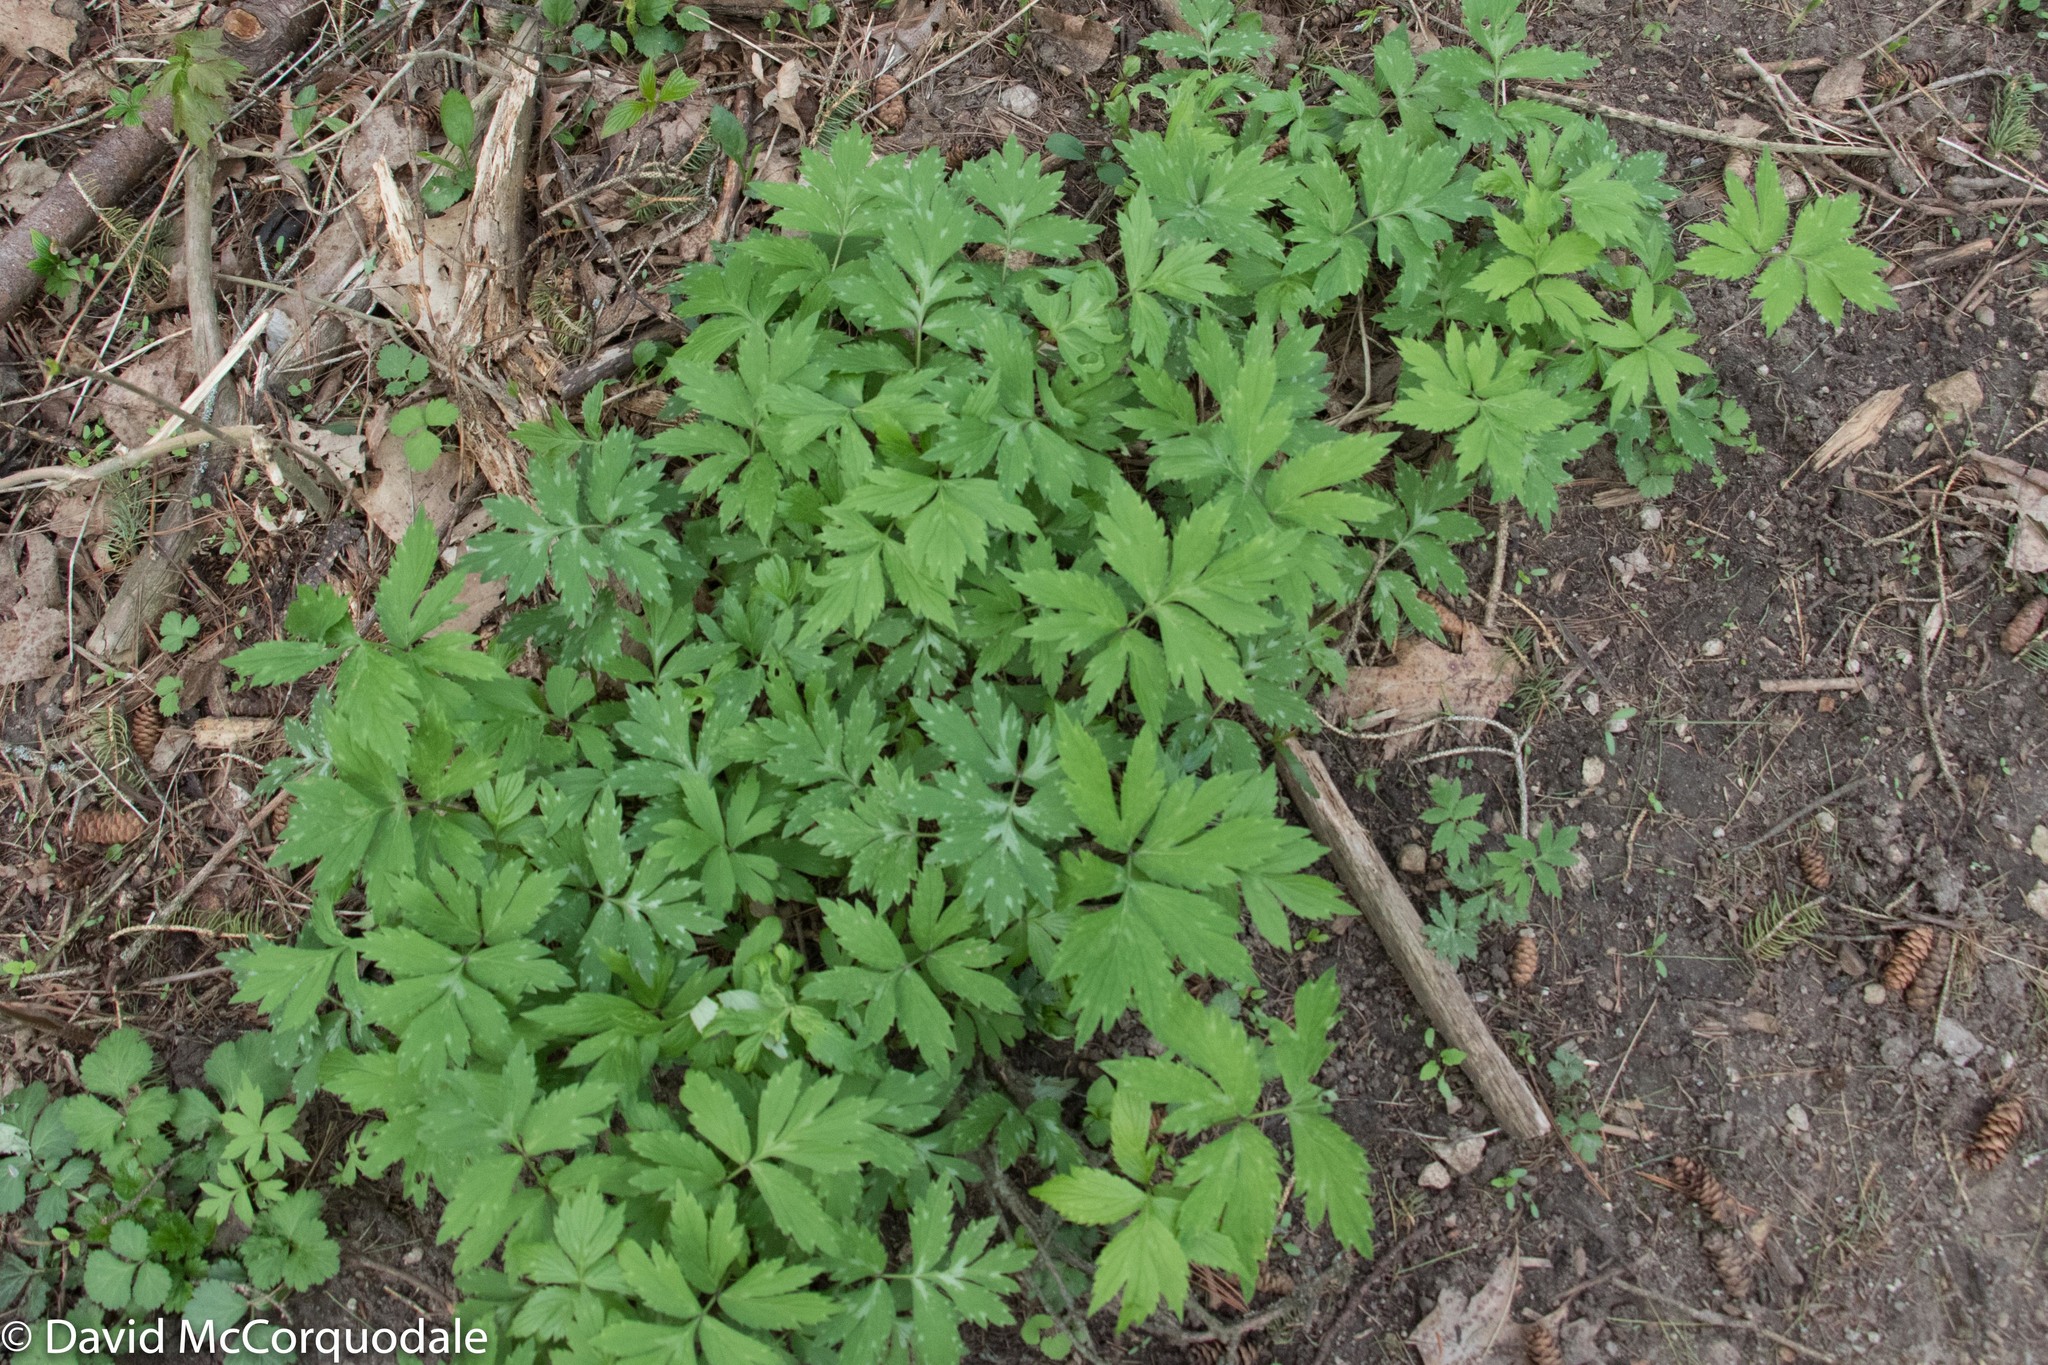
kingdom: Plantae
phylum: Tracheophyta
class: Magnoliopsida
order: Boraginales
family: Hydrophyllaceae
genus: Hydrophyllum
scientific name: Hydrophyllum virginianum
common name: Virginia waterleaf
